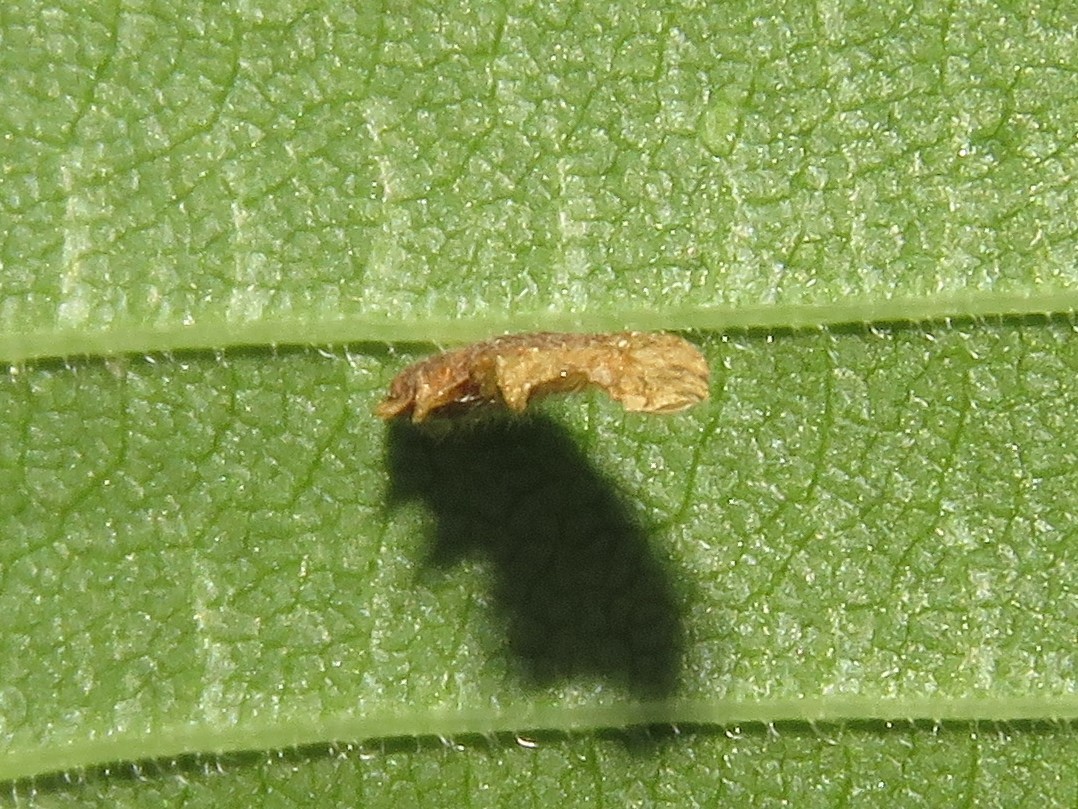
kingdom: Animalia
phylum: Arthropoda
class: Insecta
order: Lepidoptera
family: Coleophoridae
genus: Coleophora
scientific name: Coleophora limosipennella
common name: Dark elm case-bearer
